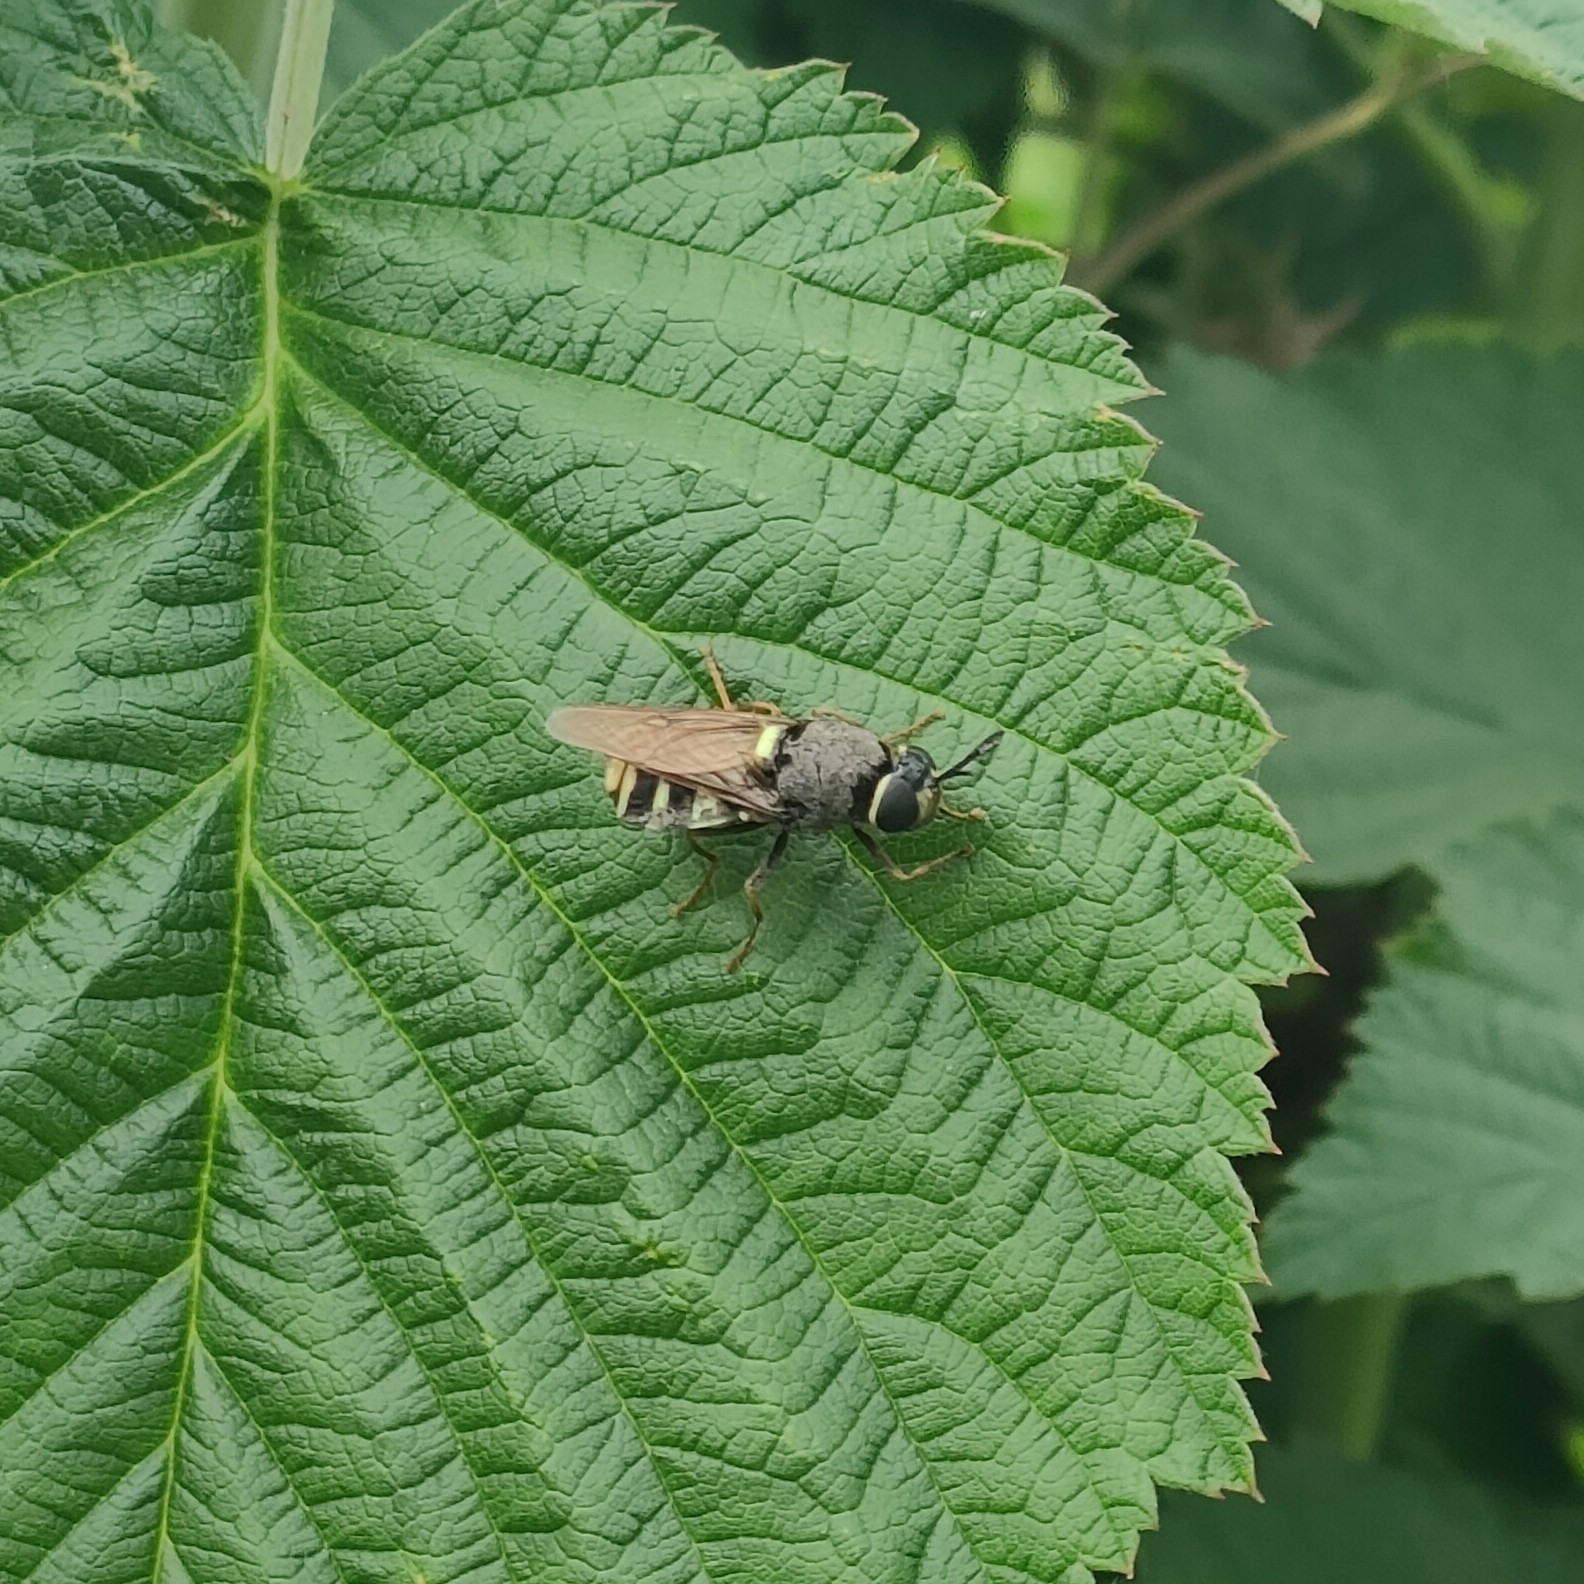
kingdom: Animalia
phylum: Arthropoda
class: Insecta
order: Diptera
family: Stratiomyidae
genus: Stratiomys
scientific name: Stratiomys chamaeleon
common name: Clubbed general
